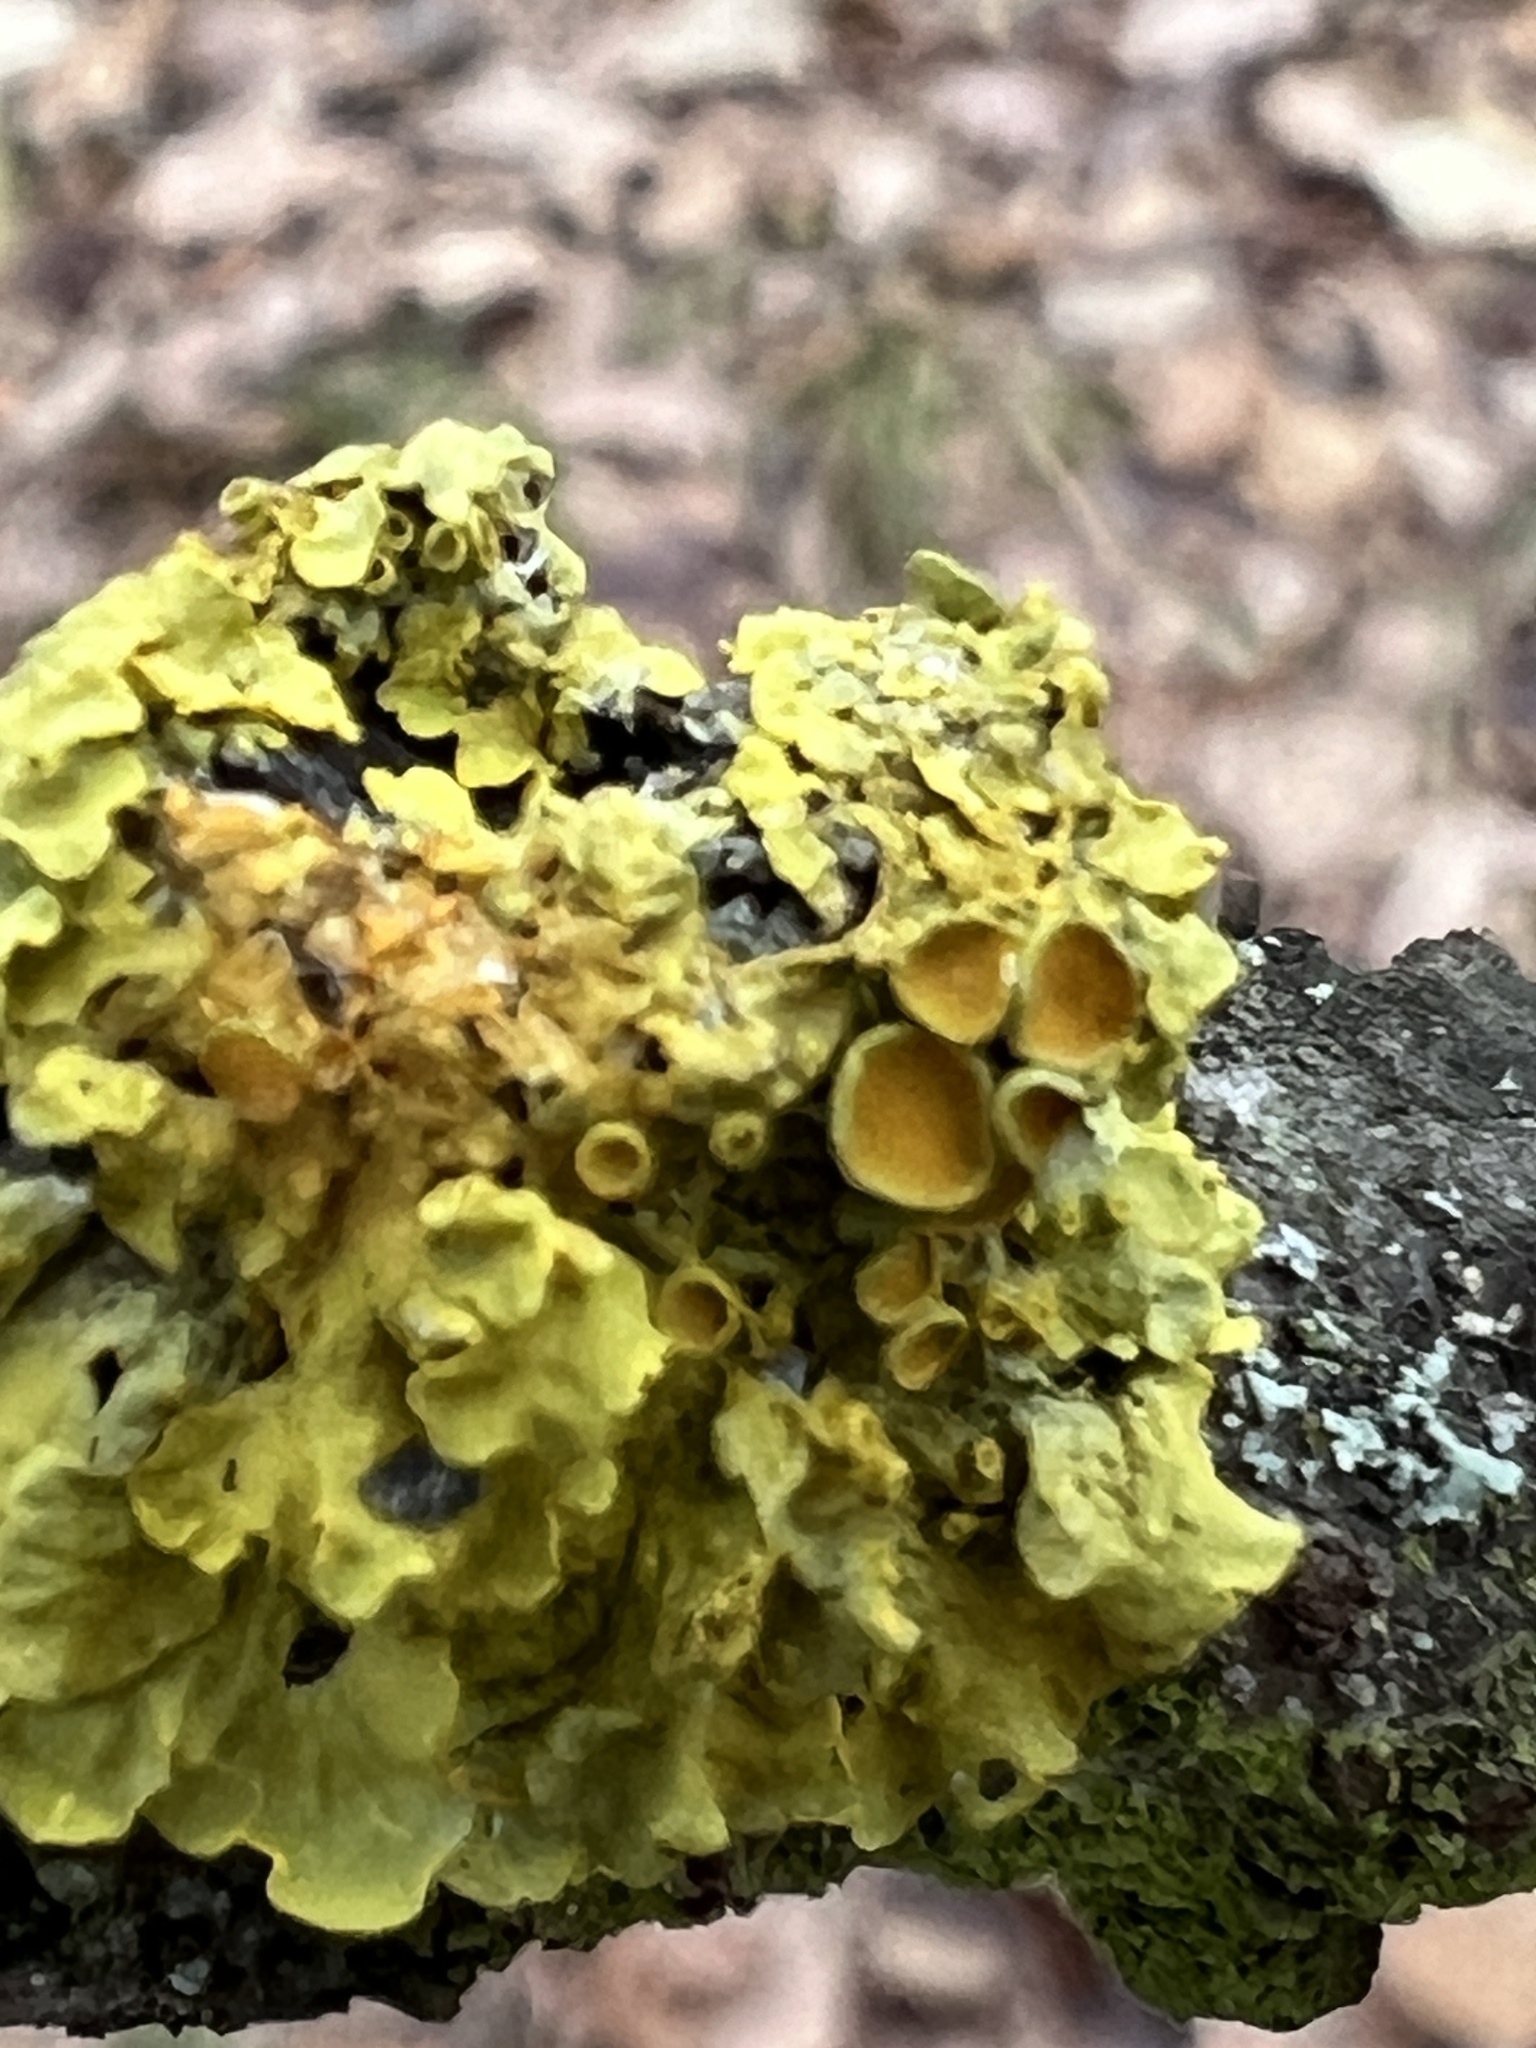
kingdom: Fungi
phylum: Ascomycota
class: Lecanoromycetes
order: Teloschistales
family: Teloschistaceae
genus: Xanthoria
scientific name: Xanthoria parietina
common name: Common orange lichen
